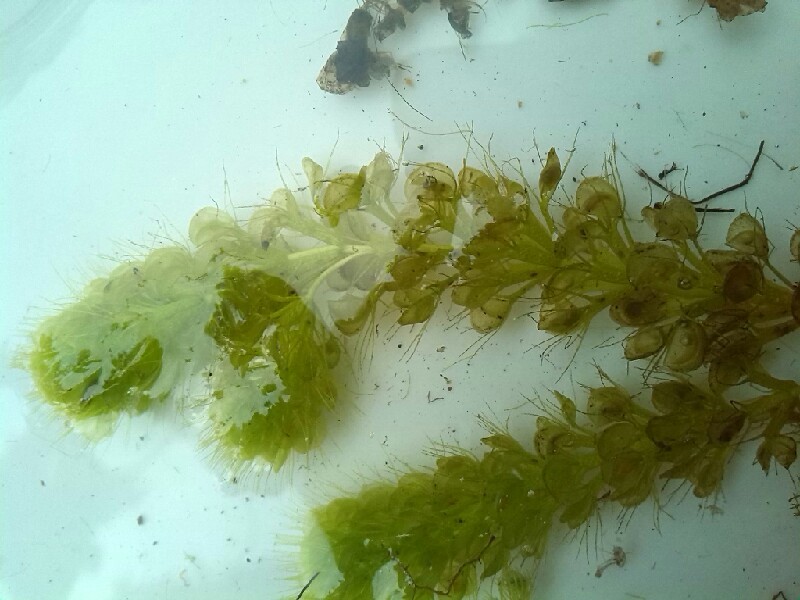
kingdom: Plantae
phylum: Tracheophyta
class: Magnoliopsida
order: Caryophyllales
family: Droseraceae
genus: Aldrovanda
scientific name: Aldrovanda vesiculosa
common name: Waterwheel plant
